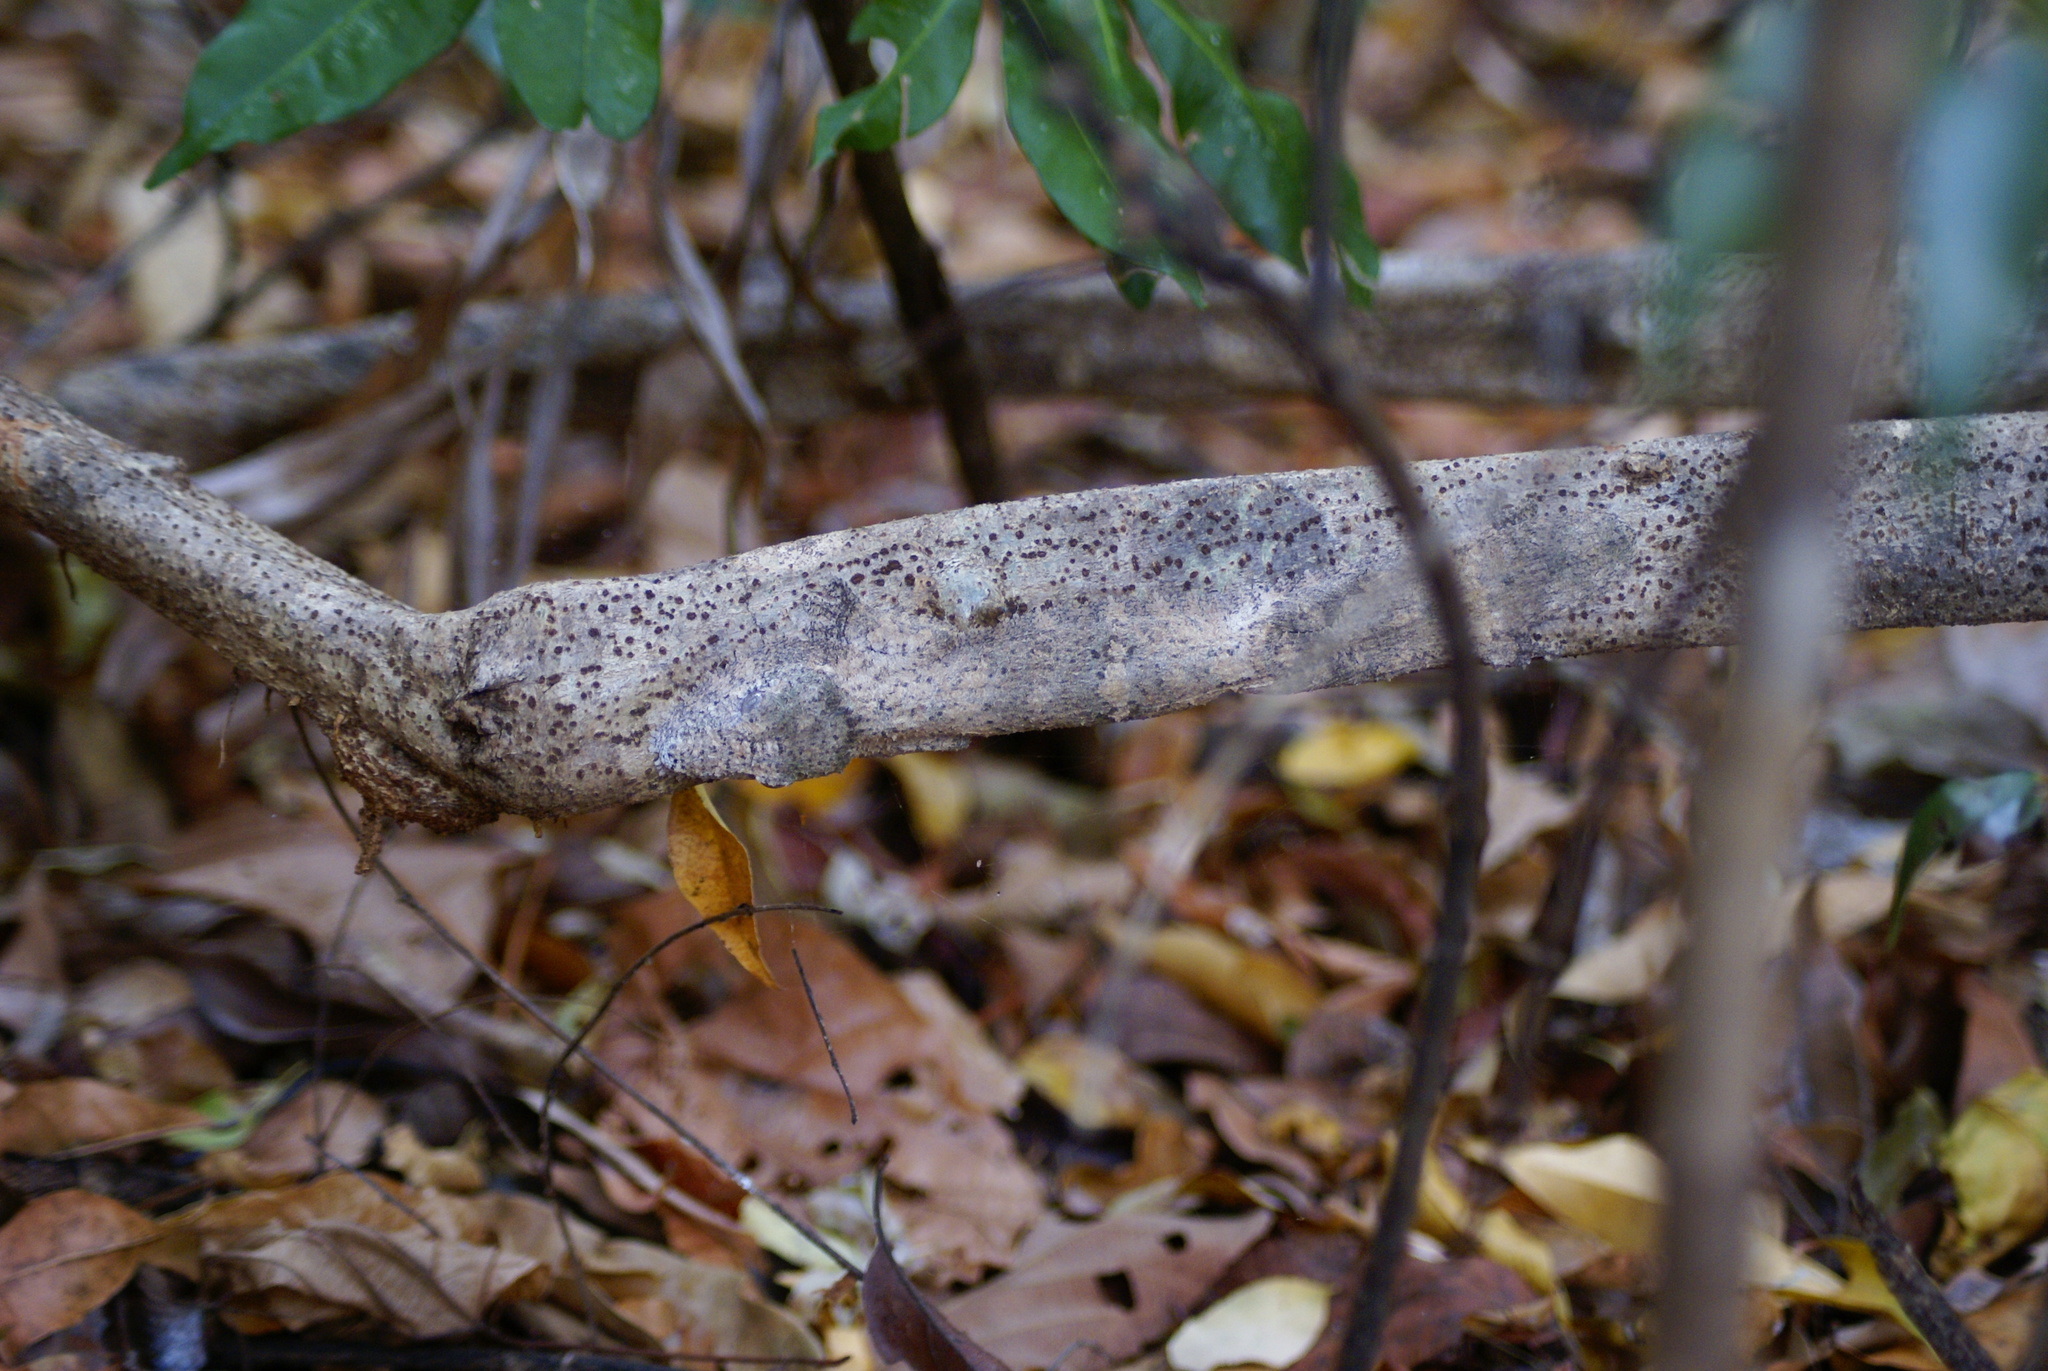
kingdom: Animalia
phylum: Chordata
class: Squamata
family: Gekkonidae
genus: Uroplatus
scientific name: Uroplatus
